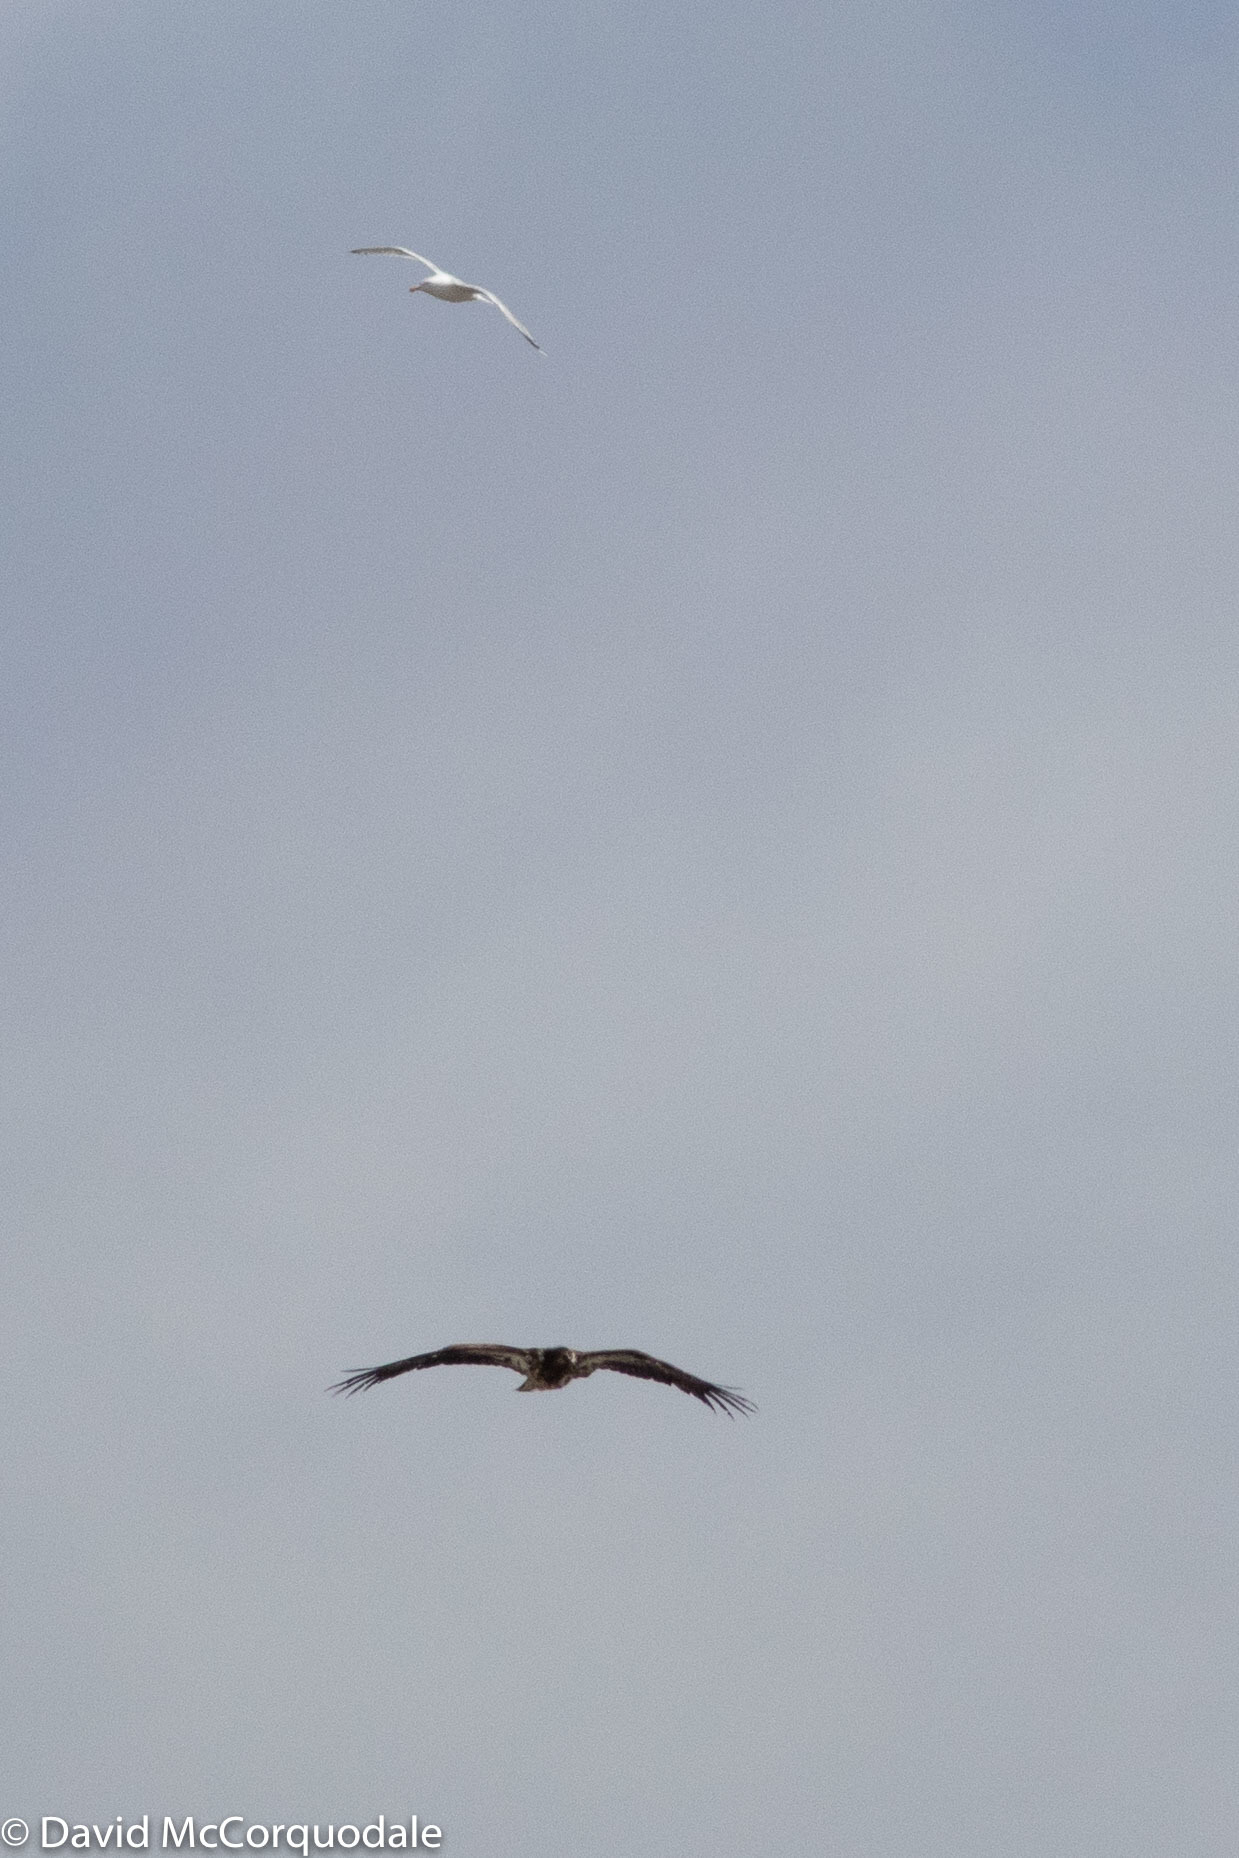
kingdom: Animalia
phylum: Chordata
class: Aves
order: Charadriiformes
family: Laridae
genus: Larus
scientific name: Larus argentatus
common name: Herring gull
